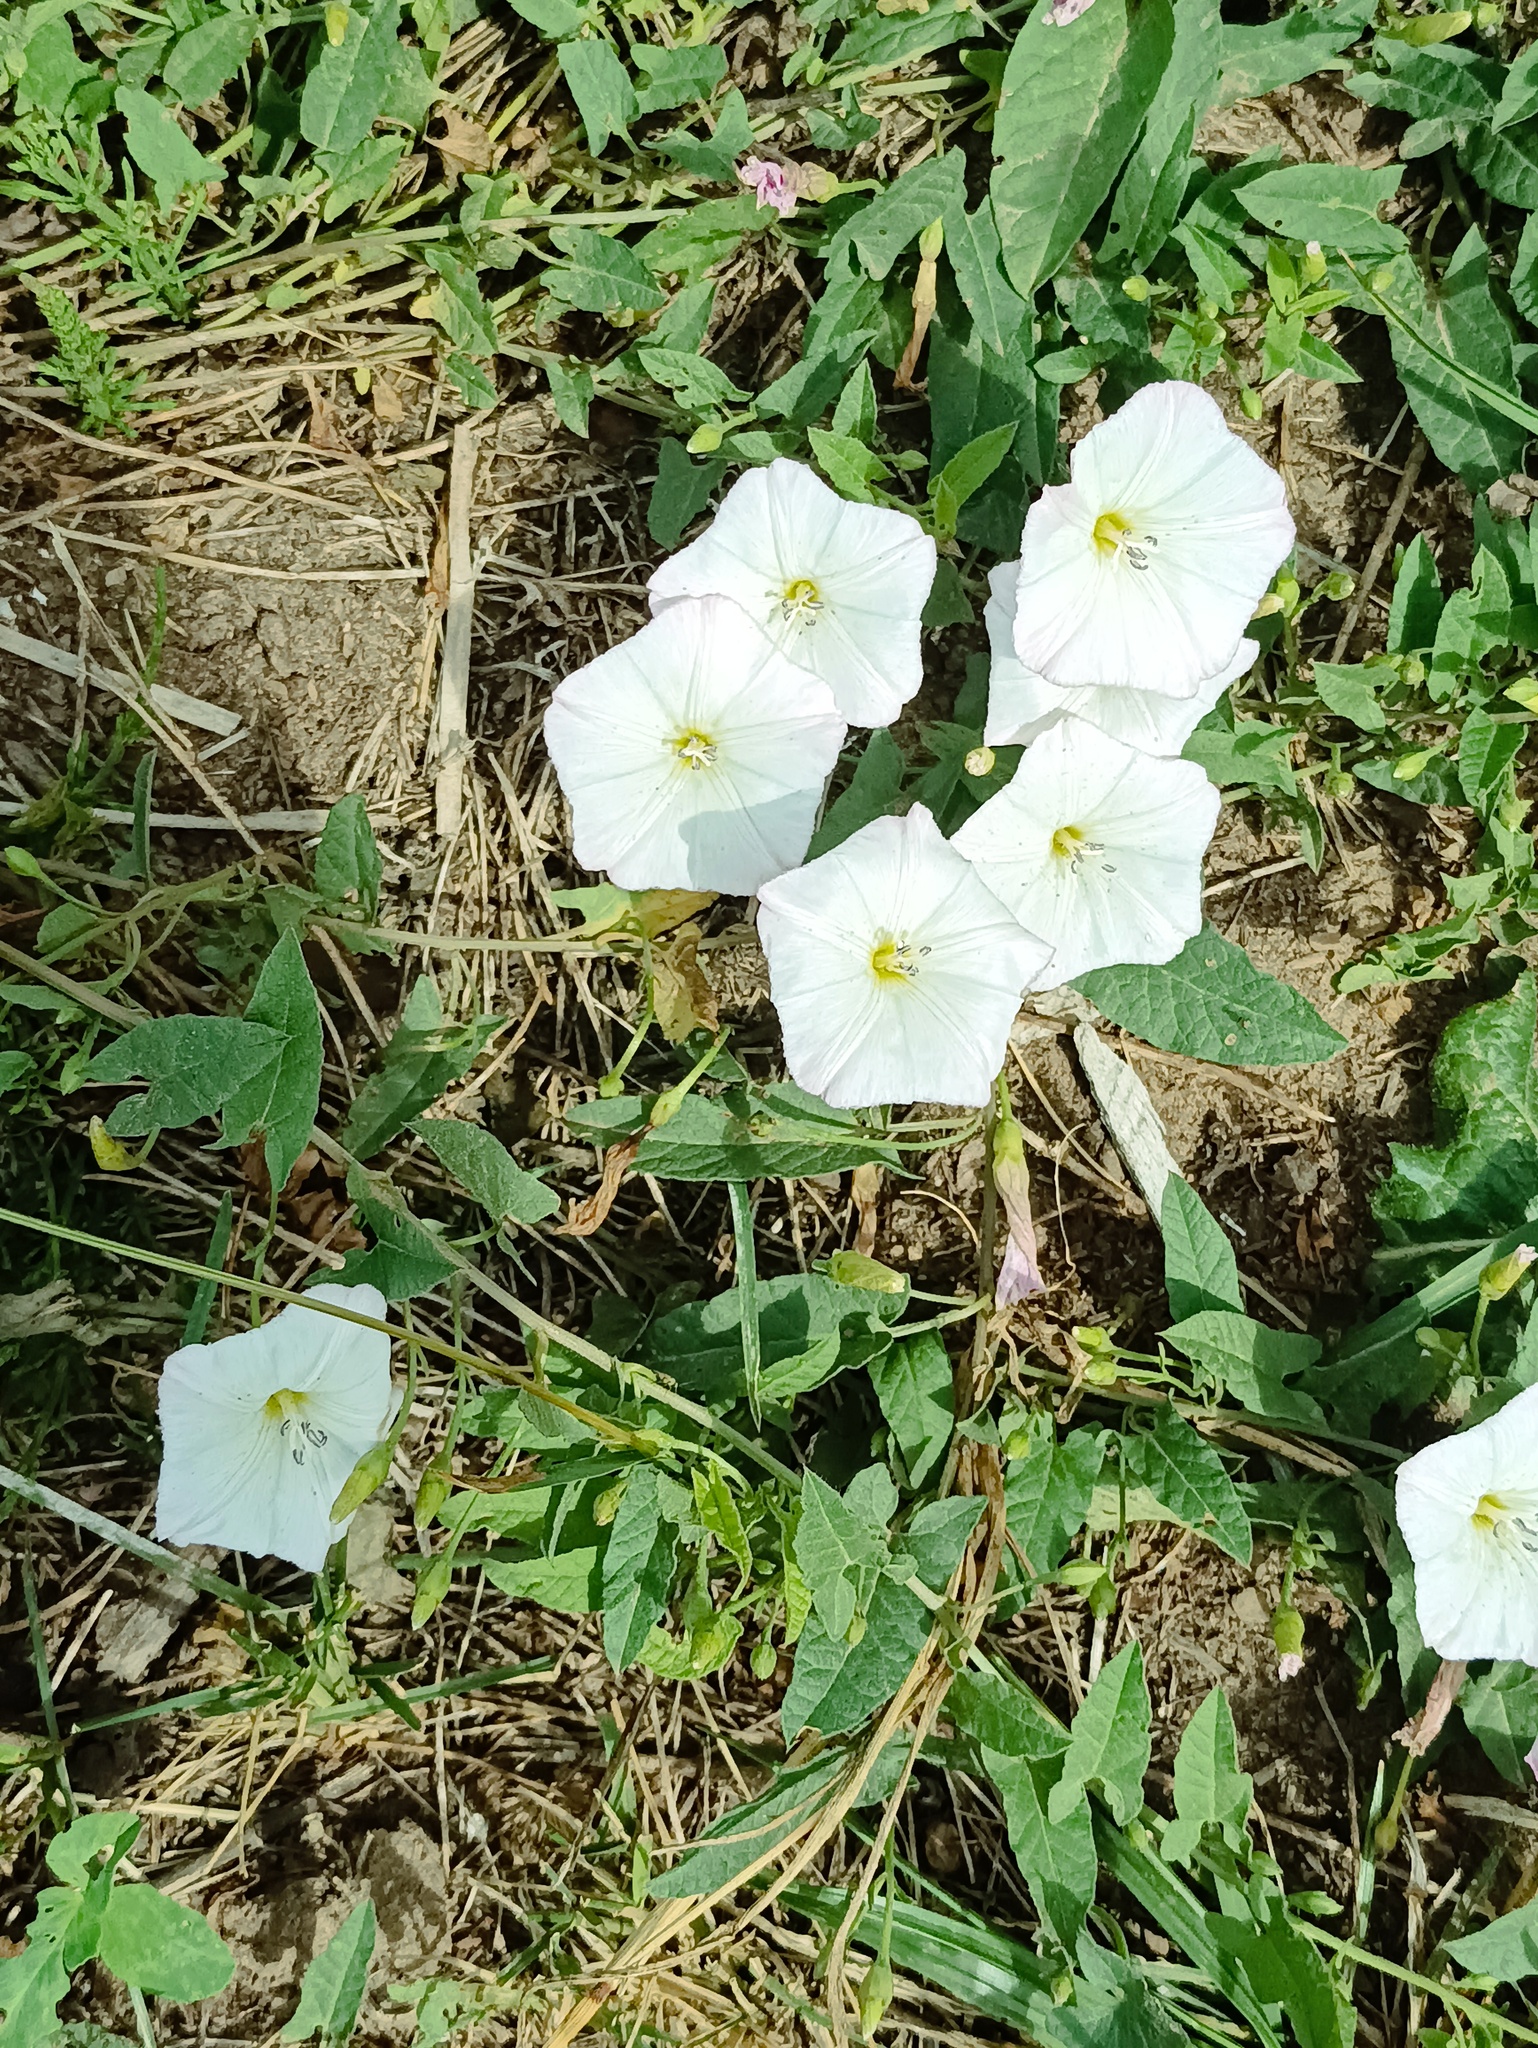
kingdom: Plantae
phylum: Tracheophyta
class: Magnoliopsida
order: Solanales
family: Convolvulaceae
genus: Convolvulus
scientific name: Convolvulus arvensis
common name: Field bindweed
